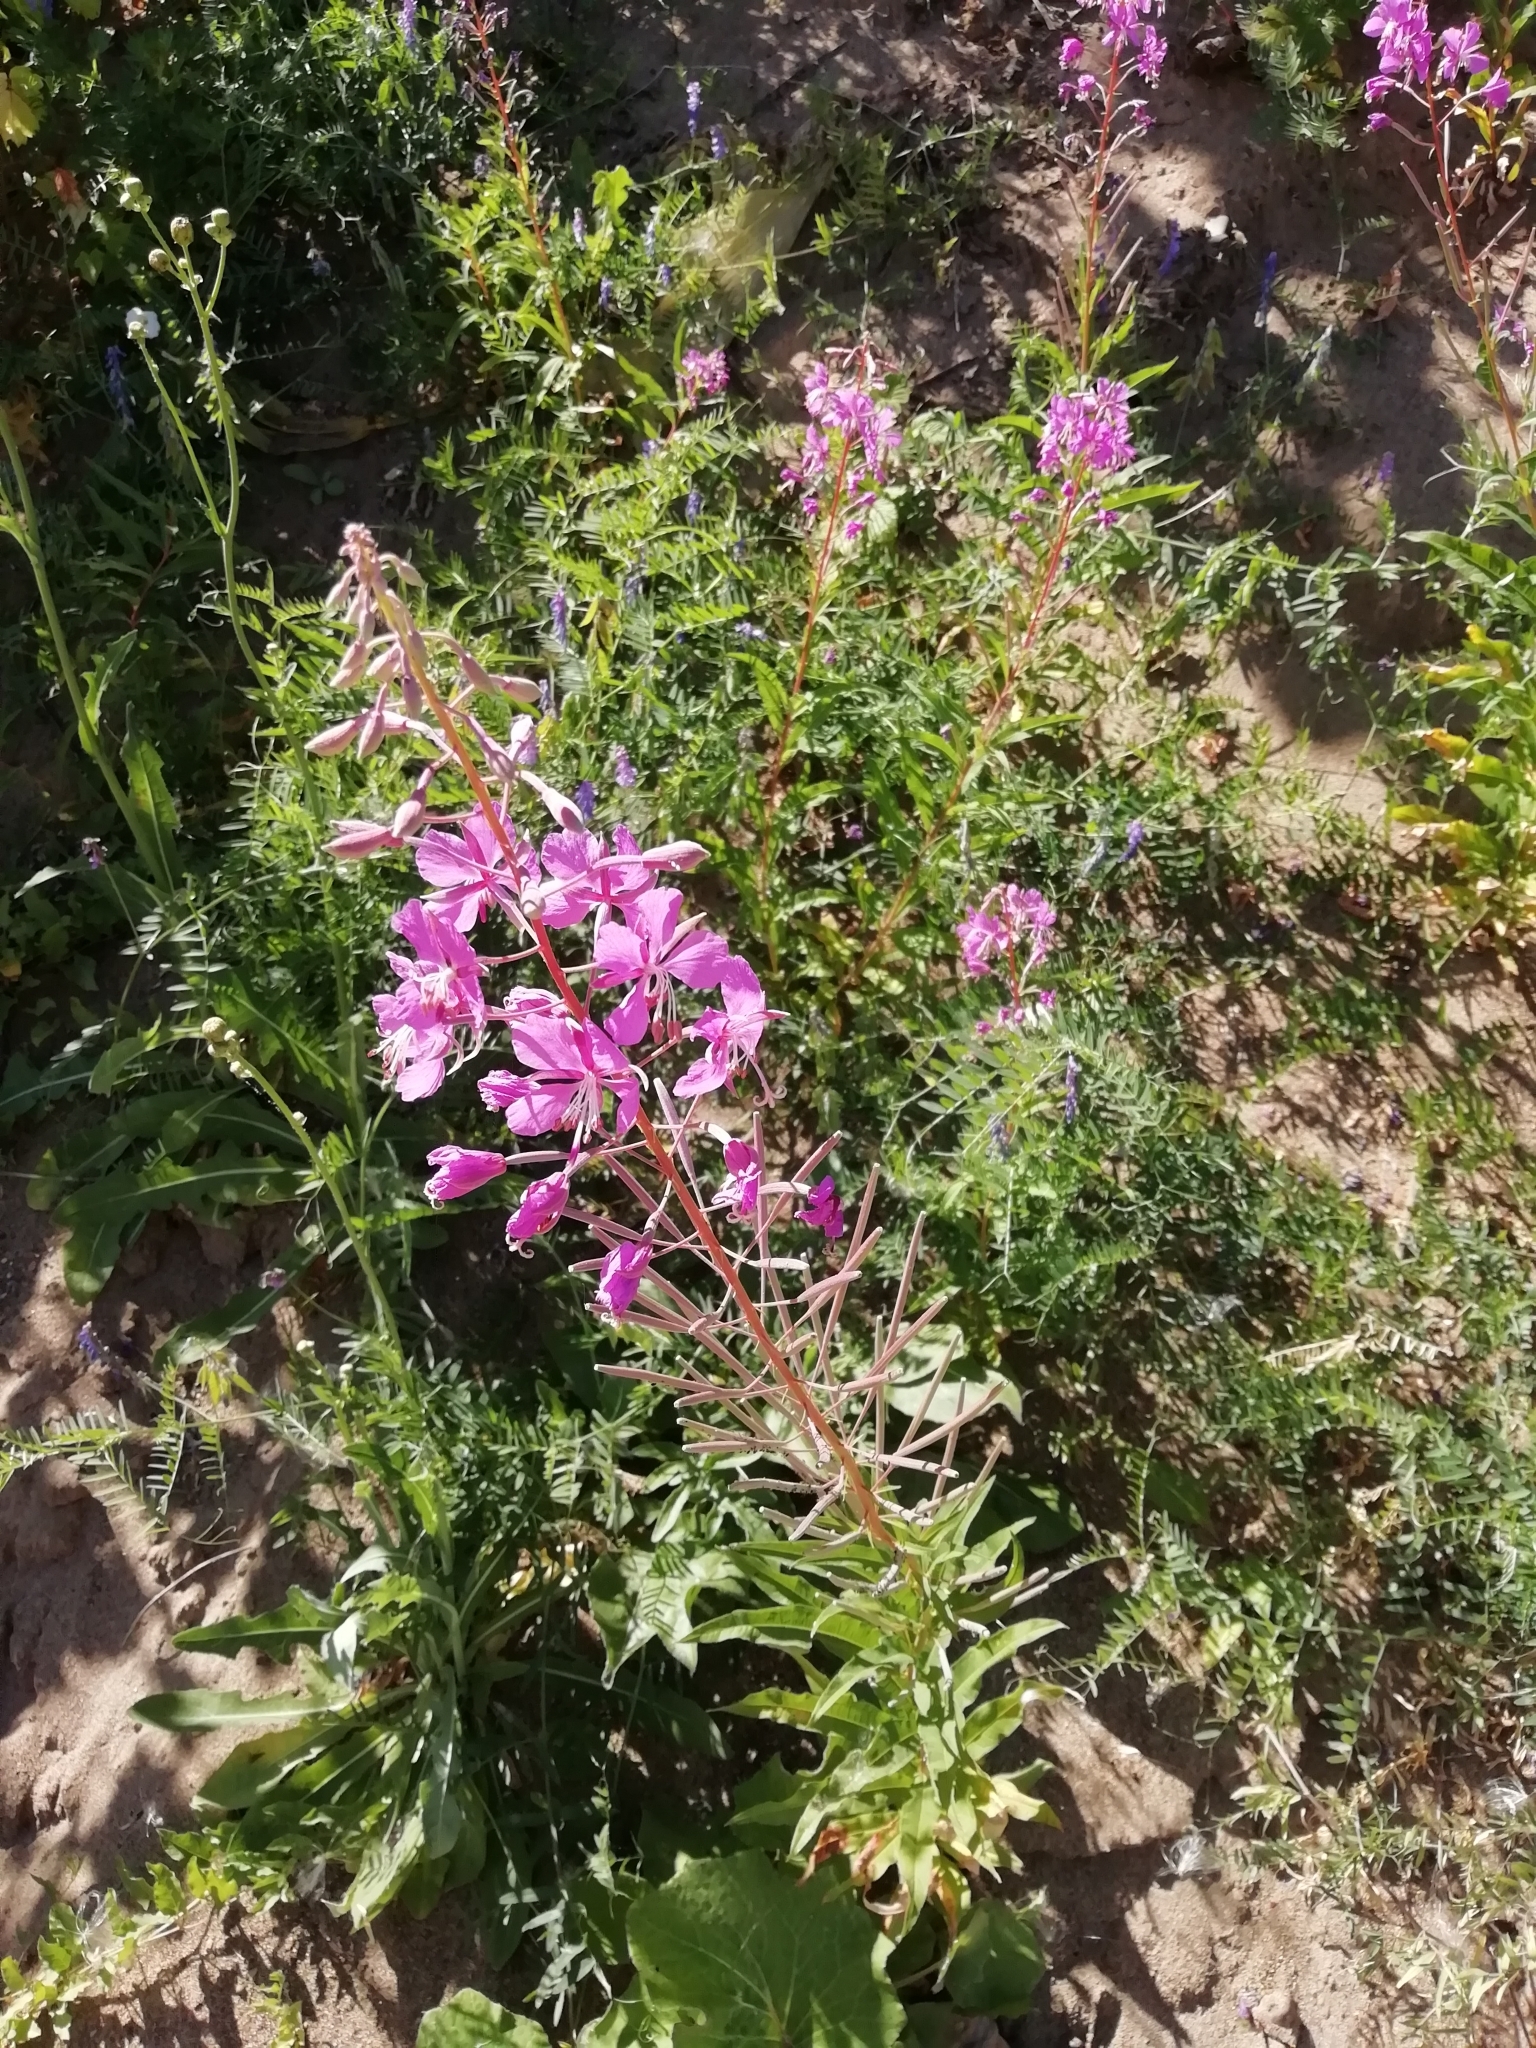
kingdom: Plantae
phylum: Tracheophyta
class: Magnoliopsida
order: Myrtales
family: Onagraceae
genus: Chamaenerion
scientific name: Chamaenerion angustifolium
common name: Fireweed
